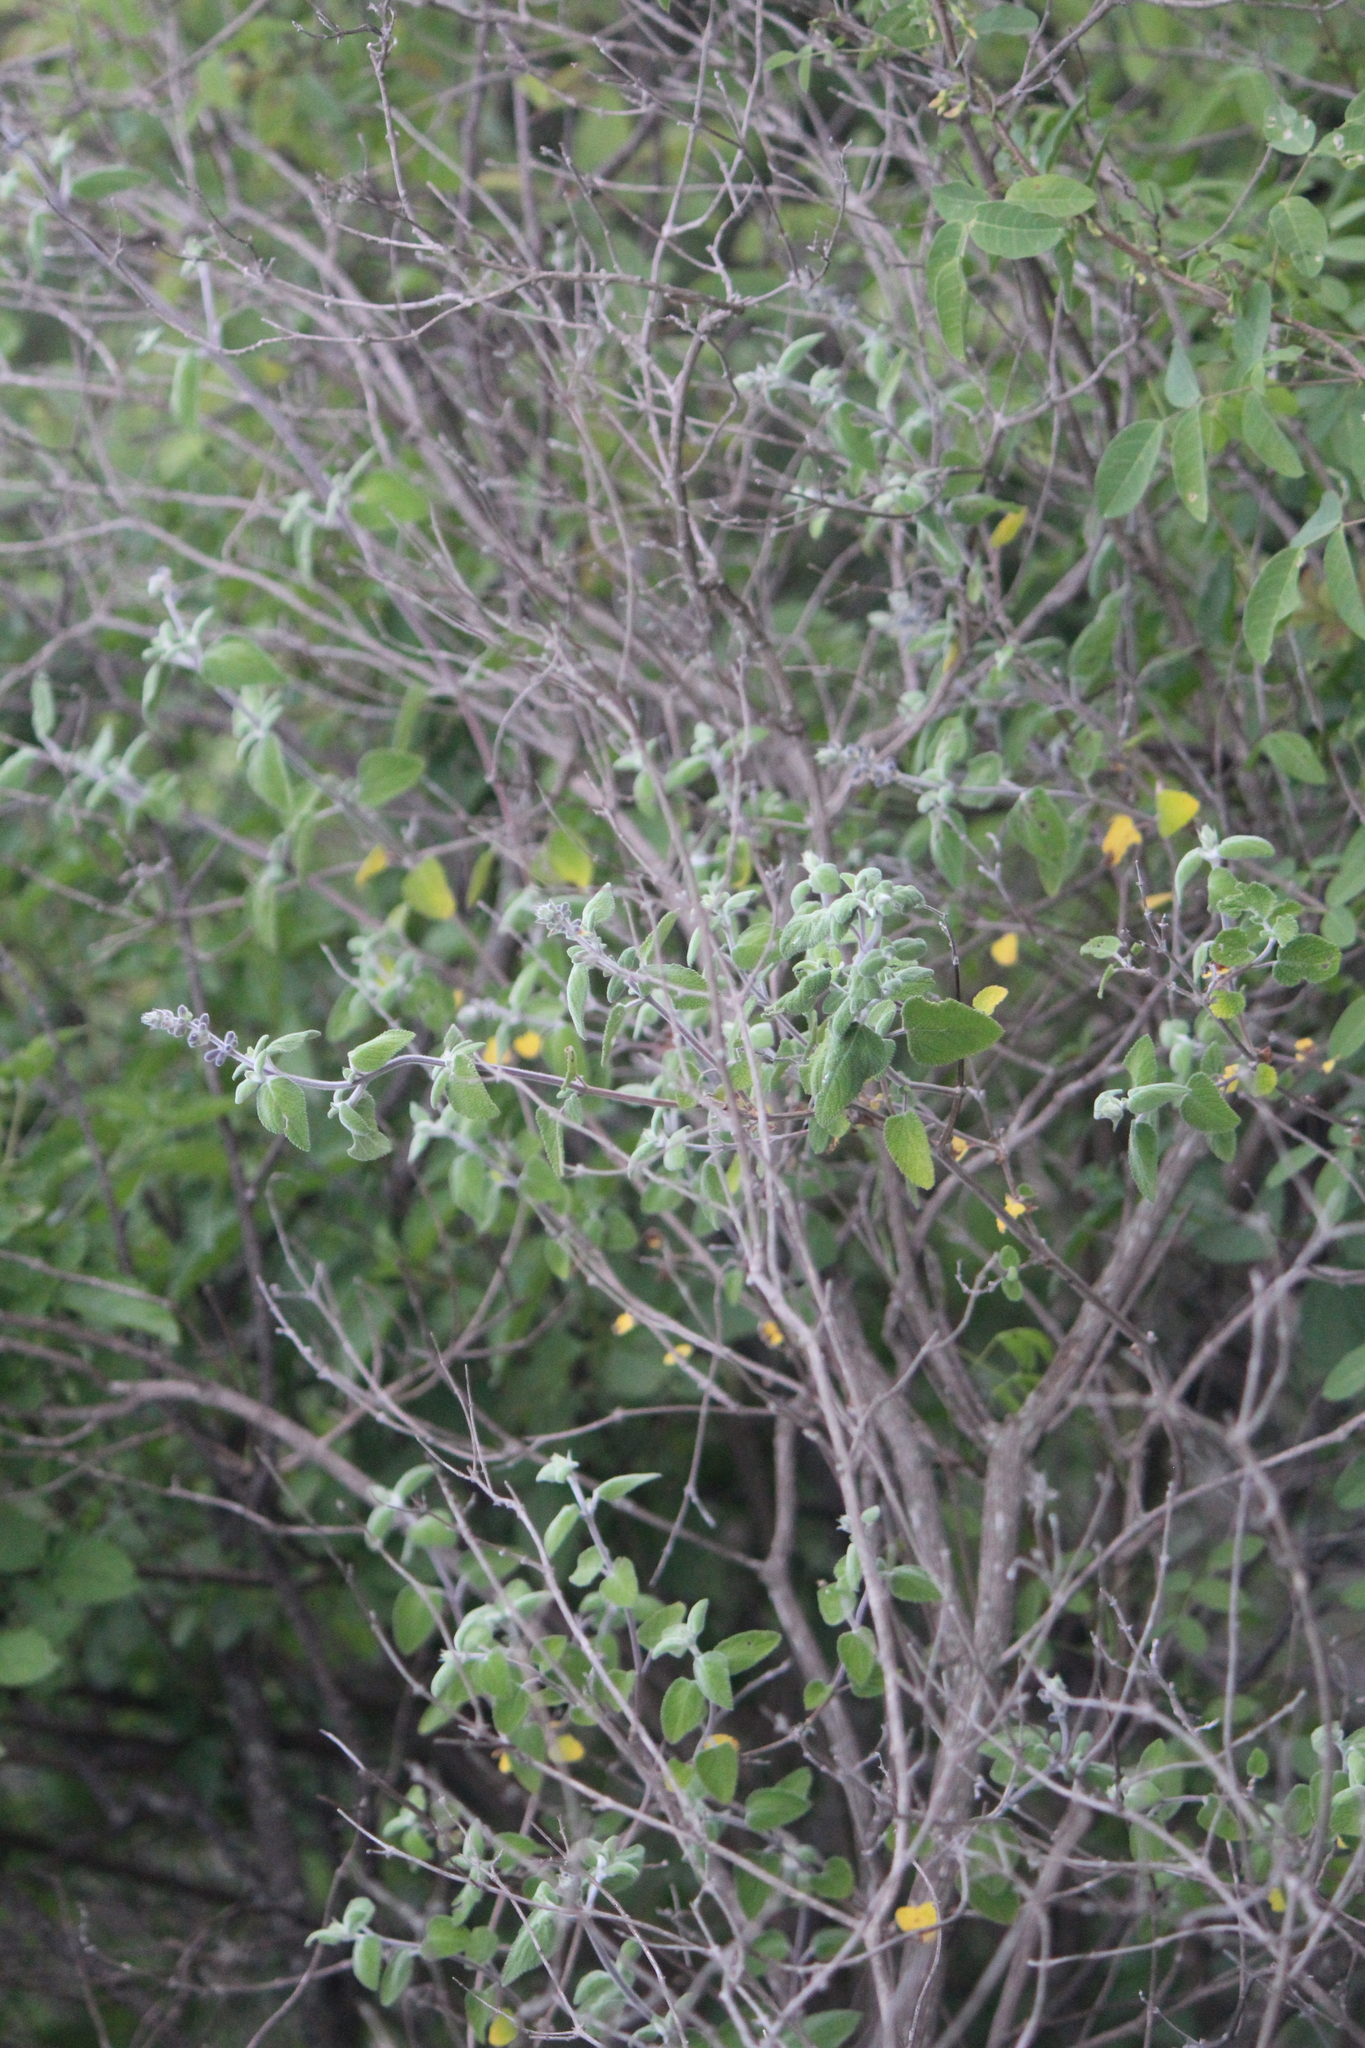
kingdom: Plantae
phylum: Tracheophyta
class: Magnoliopsida
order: Lamiales
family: Lamiaceae
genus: Salvia
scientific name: Salvia melissodora
